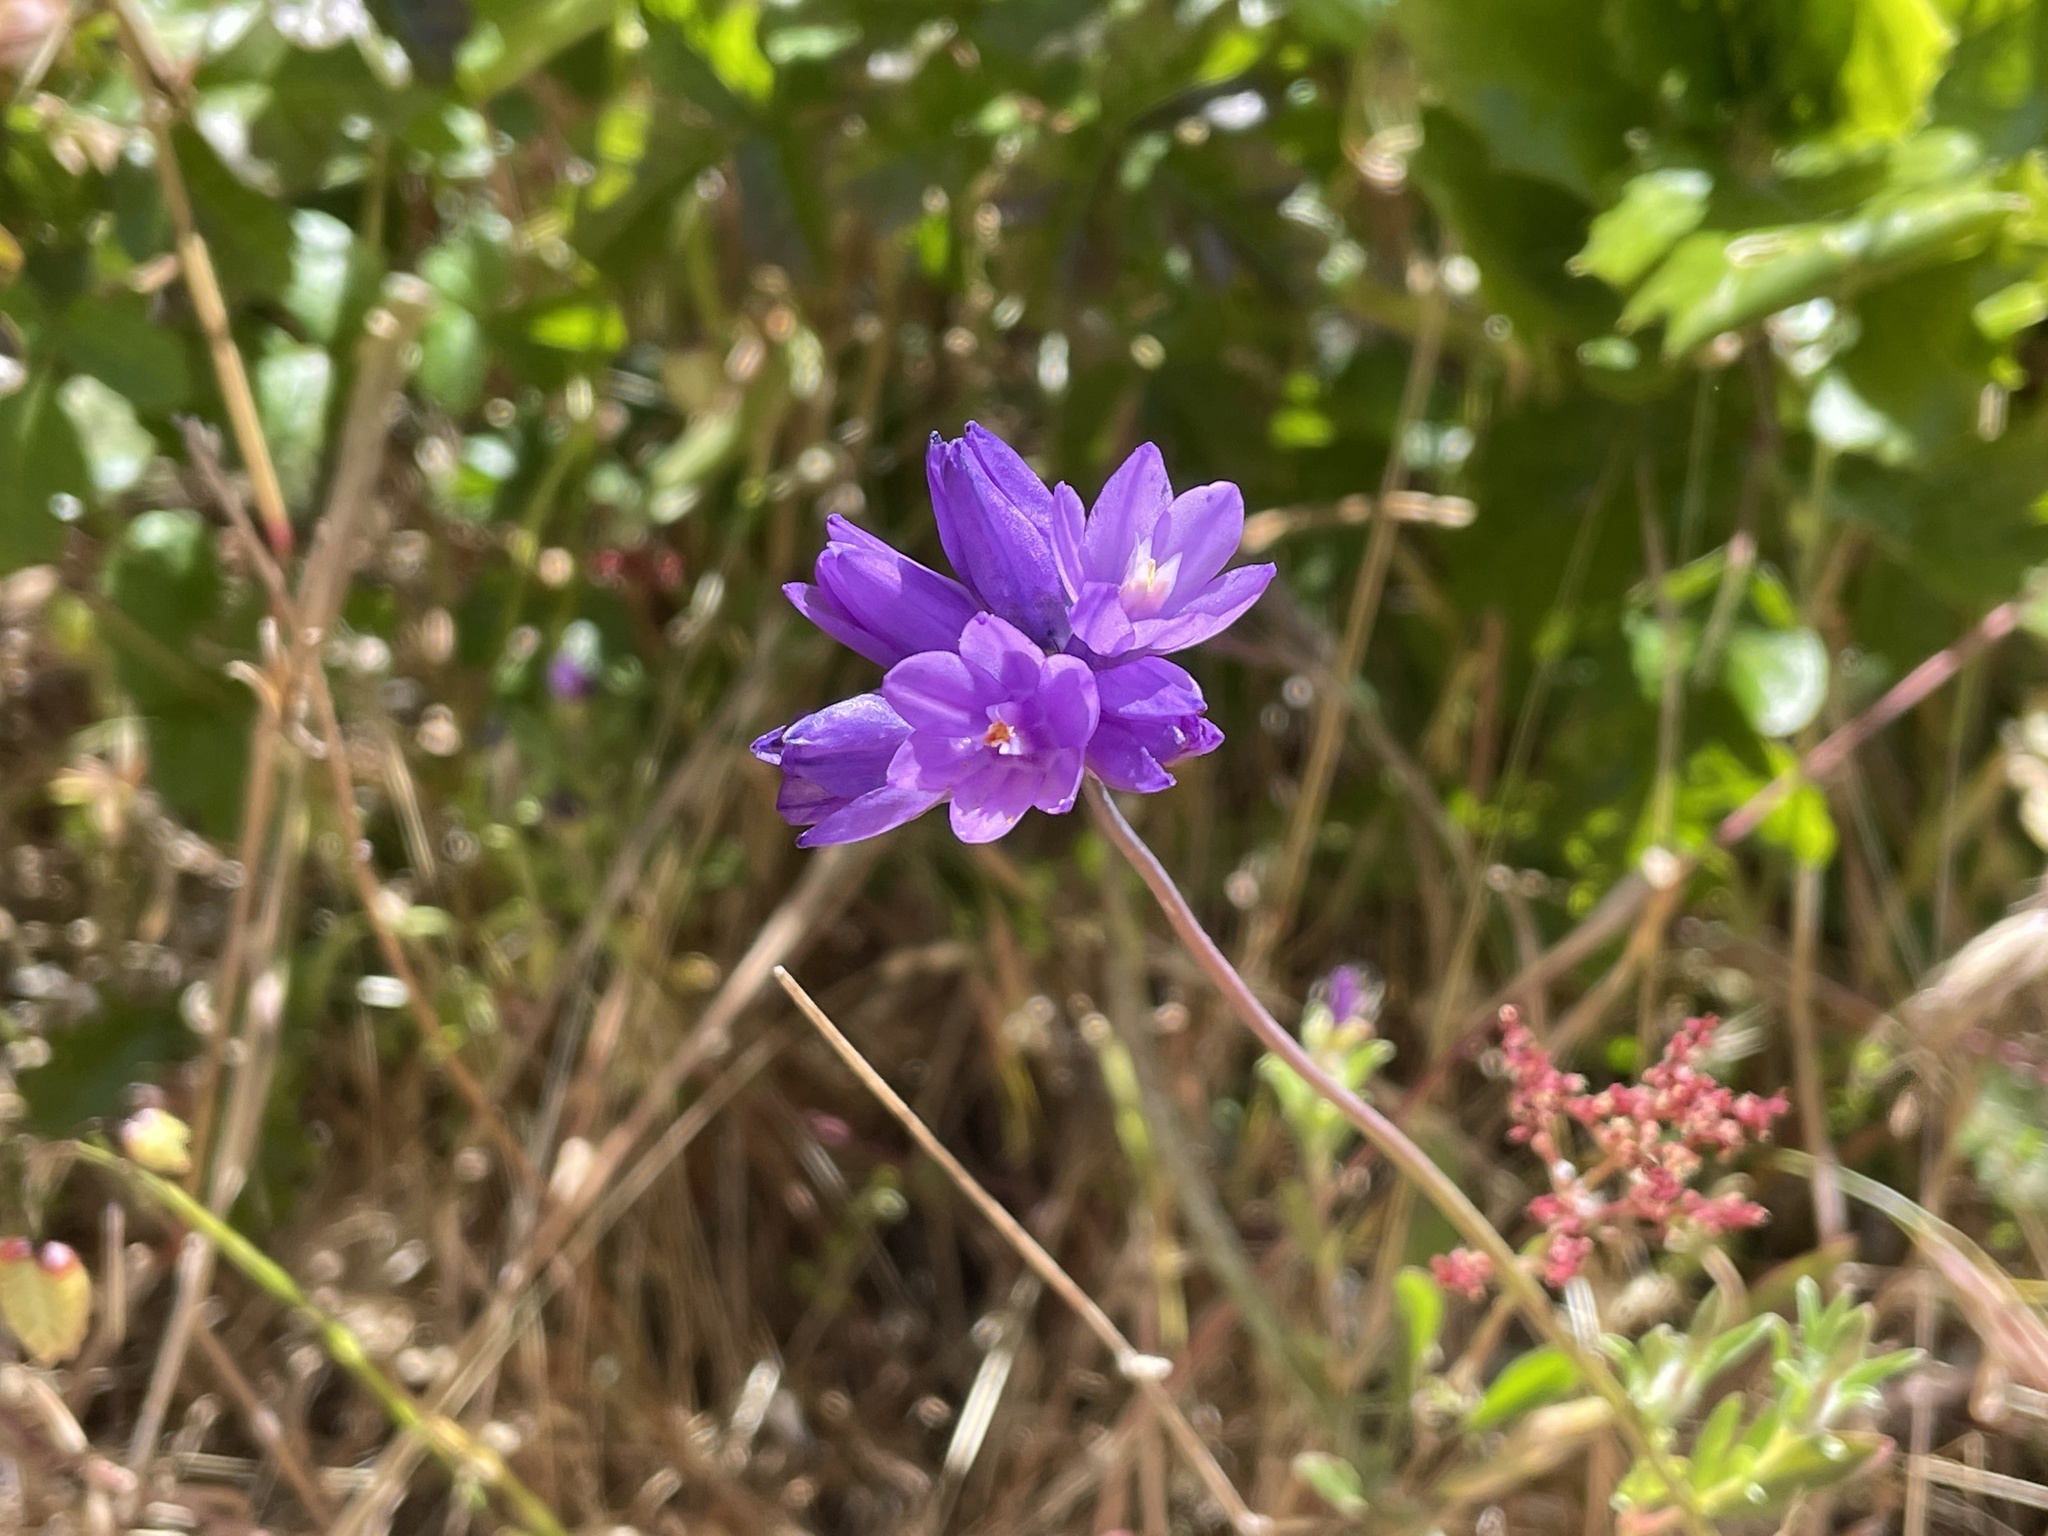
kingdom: Plantae
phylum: Tracheophyta
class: Liliopsida
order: Asparagales
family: Asparagaceae
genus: Dipterostemon
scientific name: Dipterostemon capitatus
